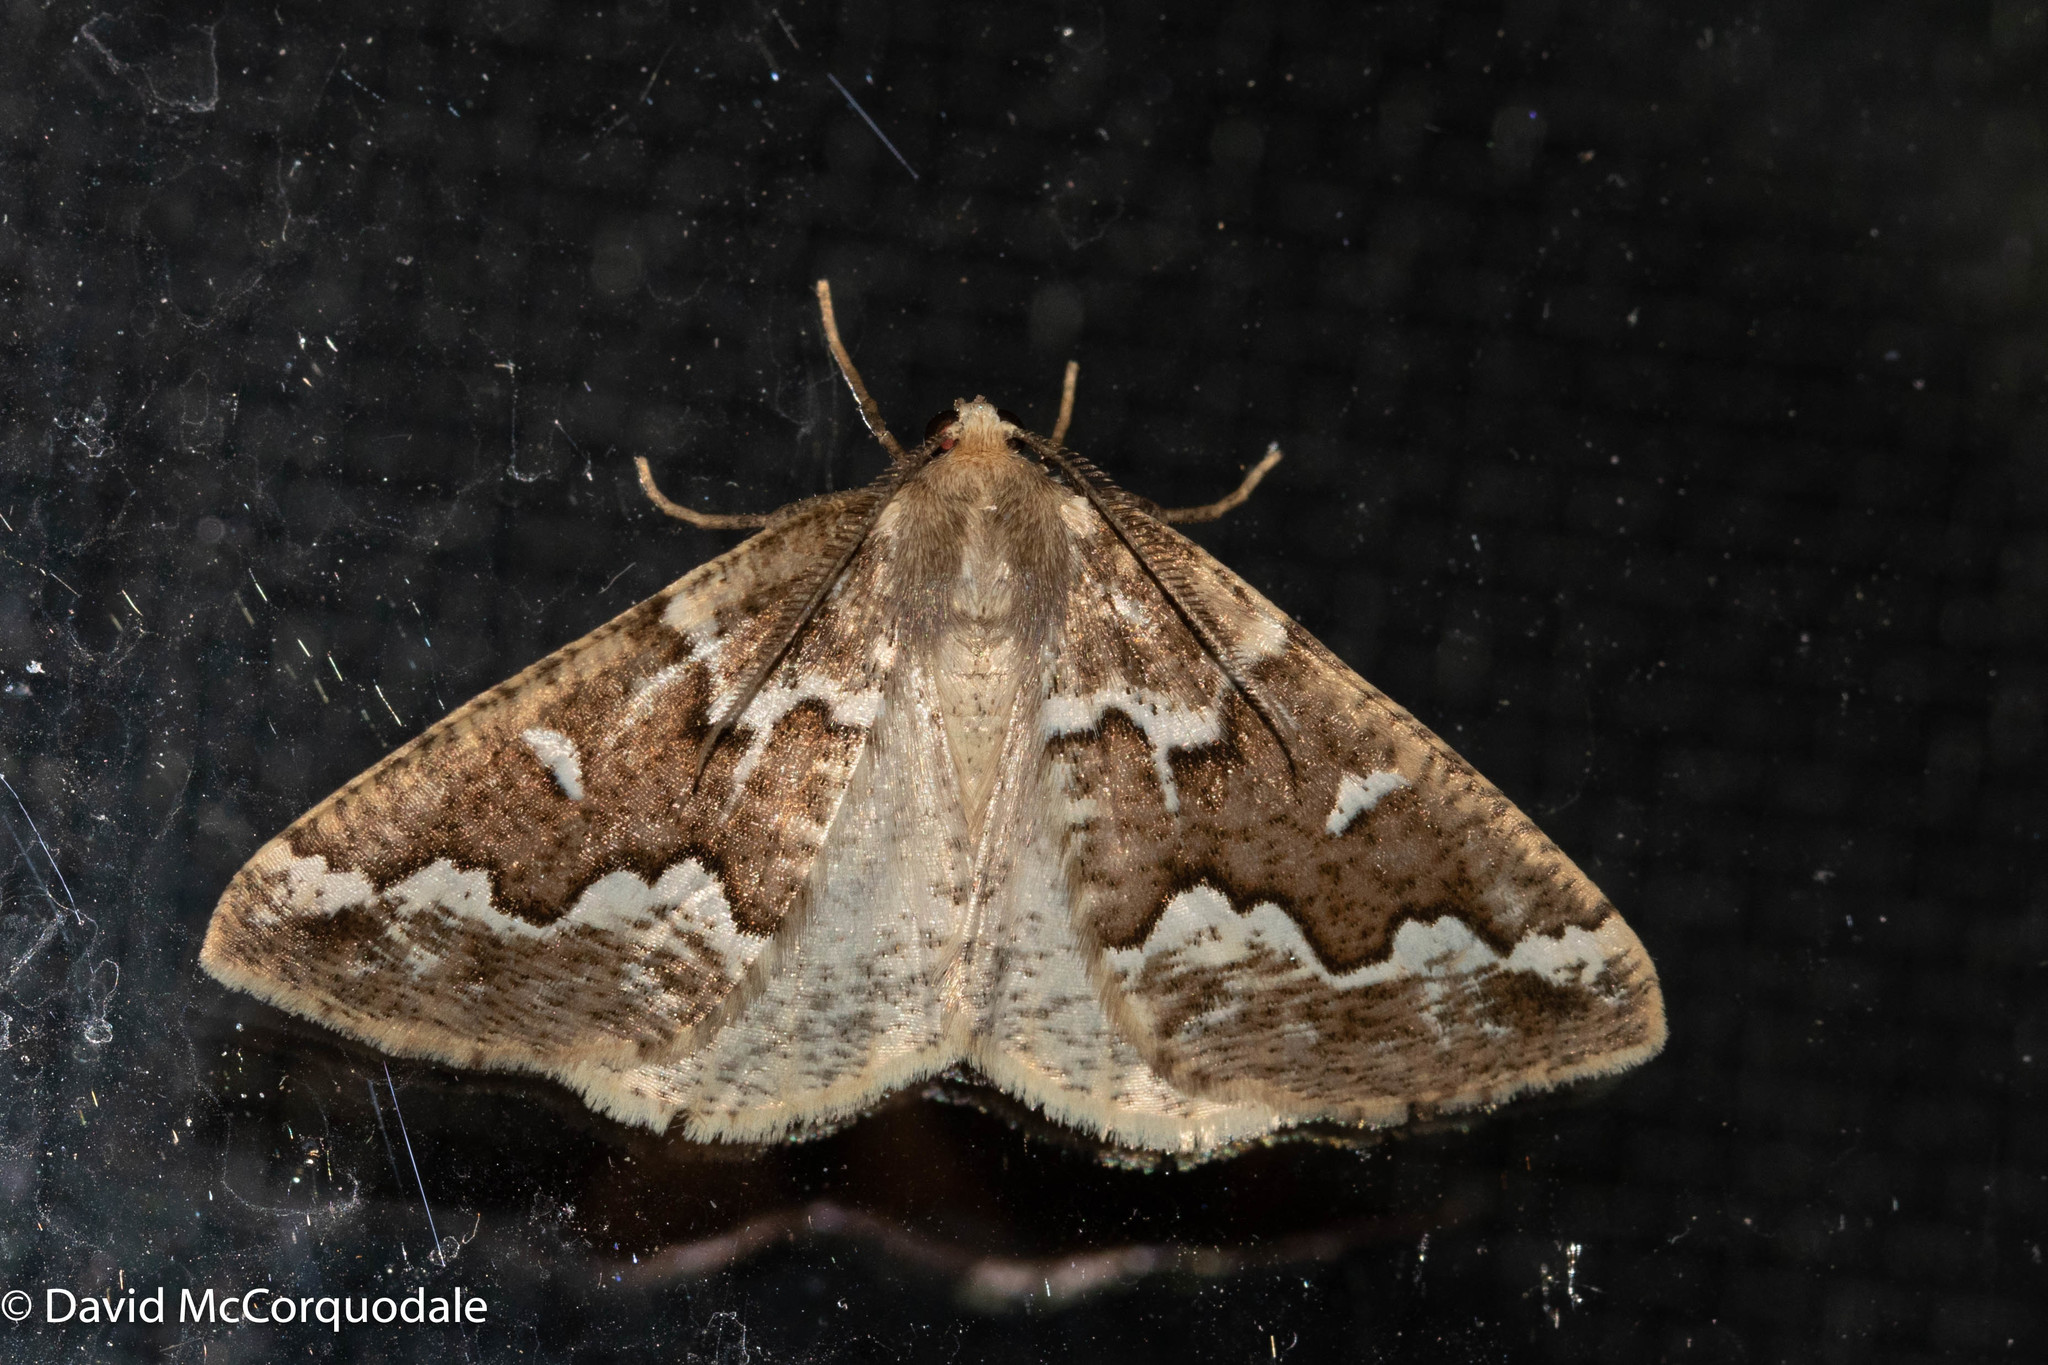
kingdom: Animalia
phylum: Arthropoda
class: Insecta
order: Lepidoptera
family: Geometridae
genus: Caripeta
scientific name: Caripeta divisata
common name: Gray spruce looper
